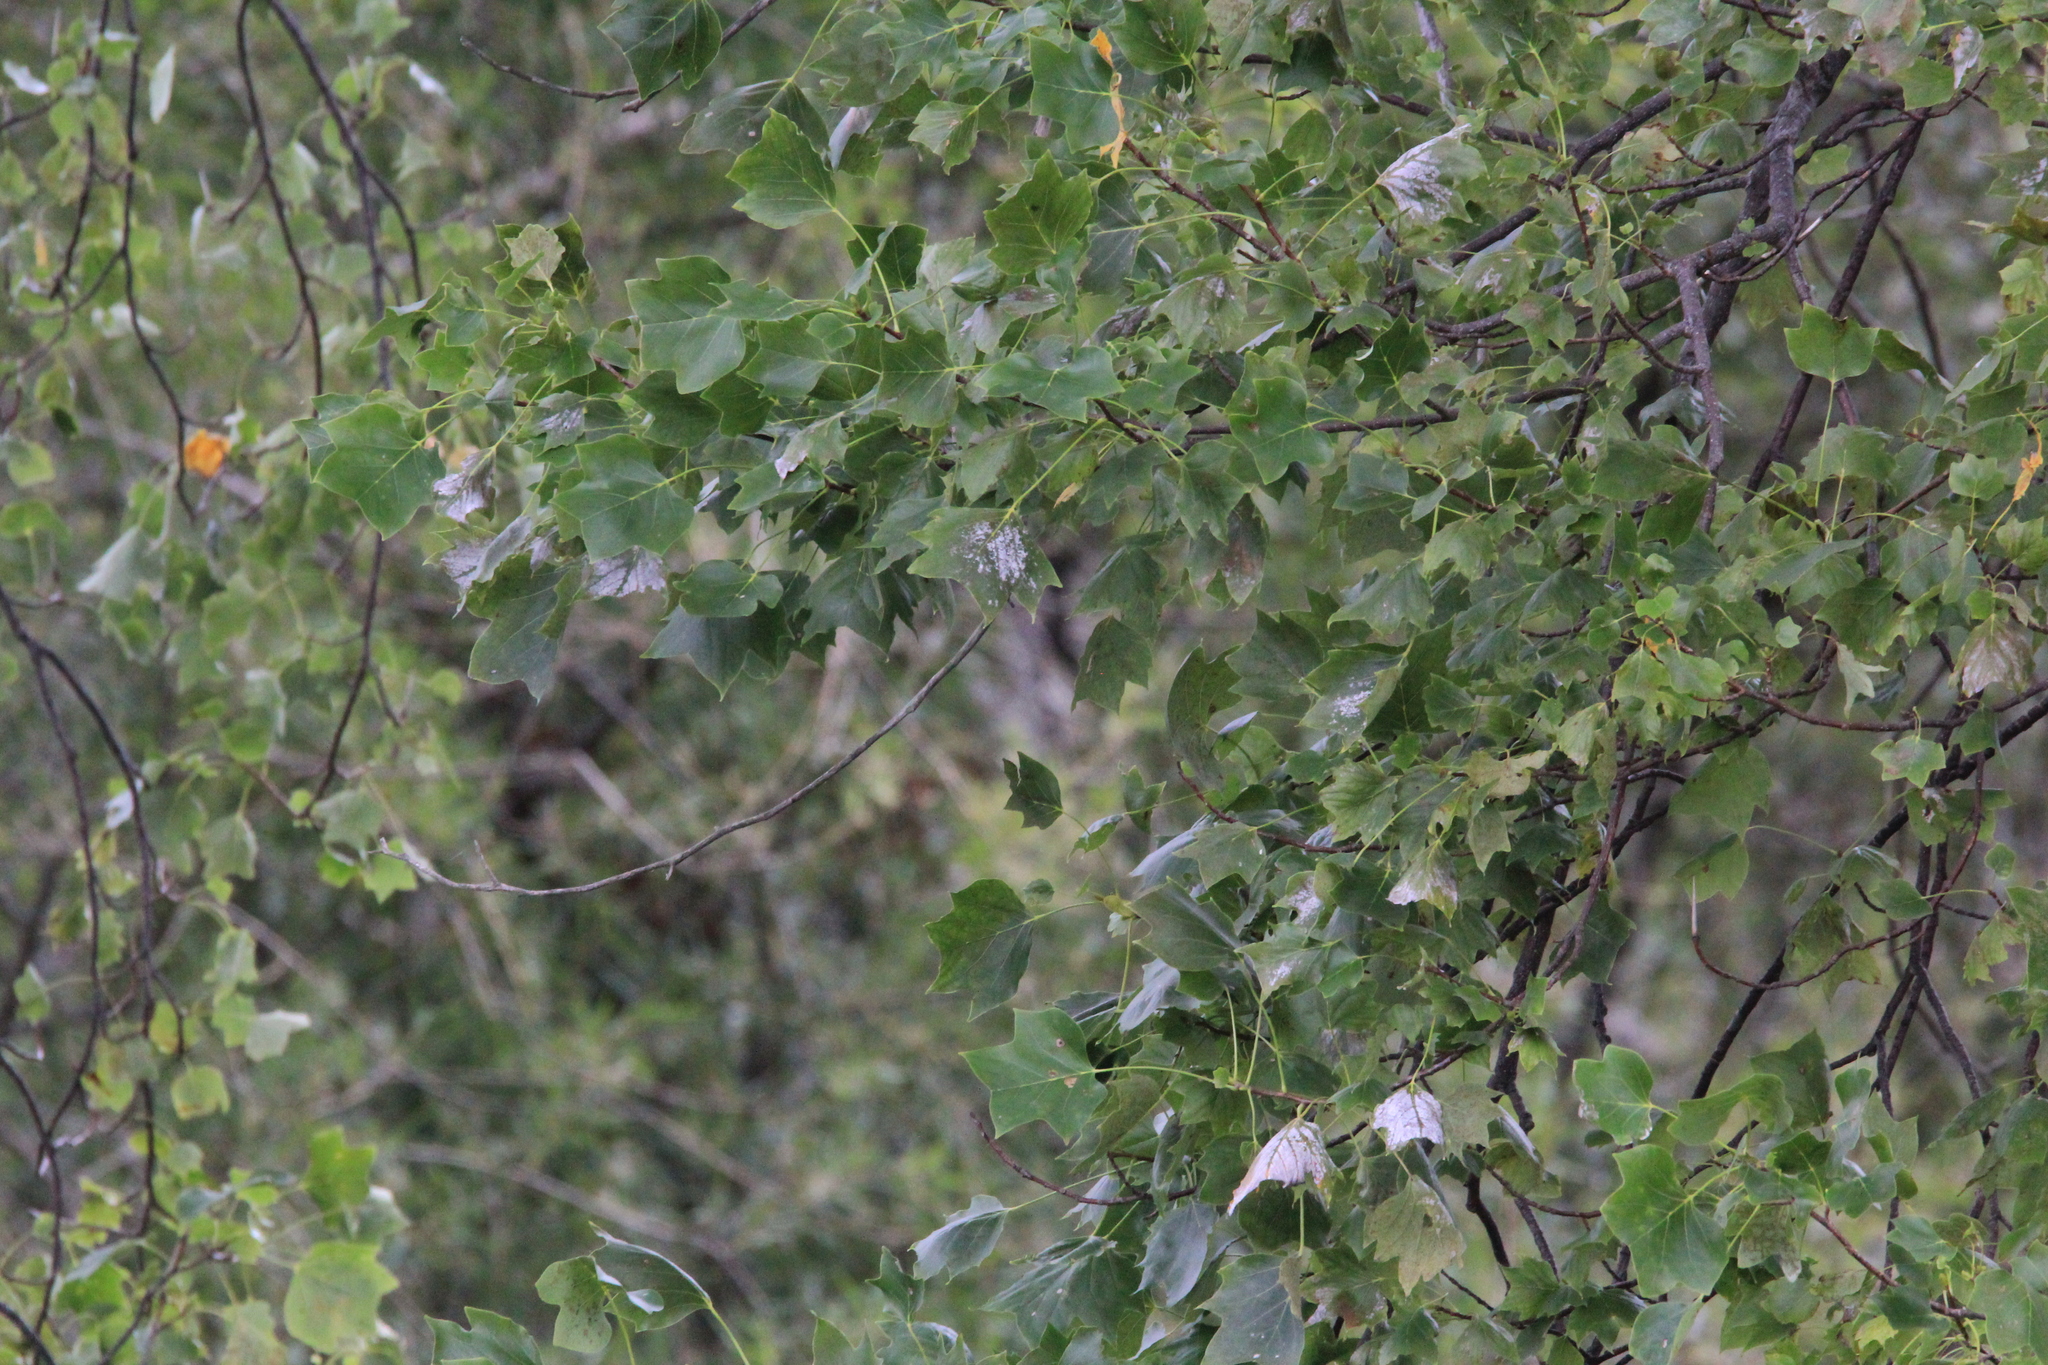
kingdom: Plantae
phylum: Tracheophyta
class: Magnoliopsida
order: Magnoliales
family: Magnoliaceae
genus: Liriodendron
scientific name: Liriodendron tulipifera
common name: Tulip tree
